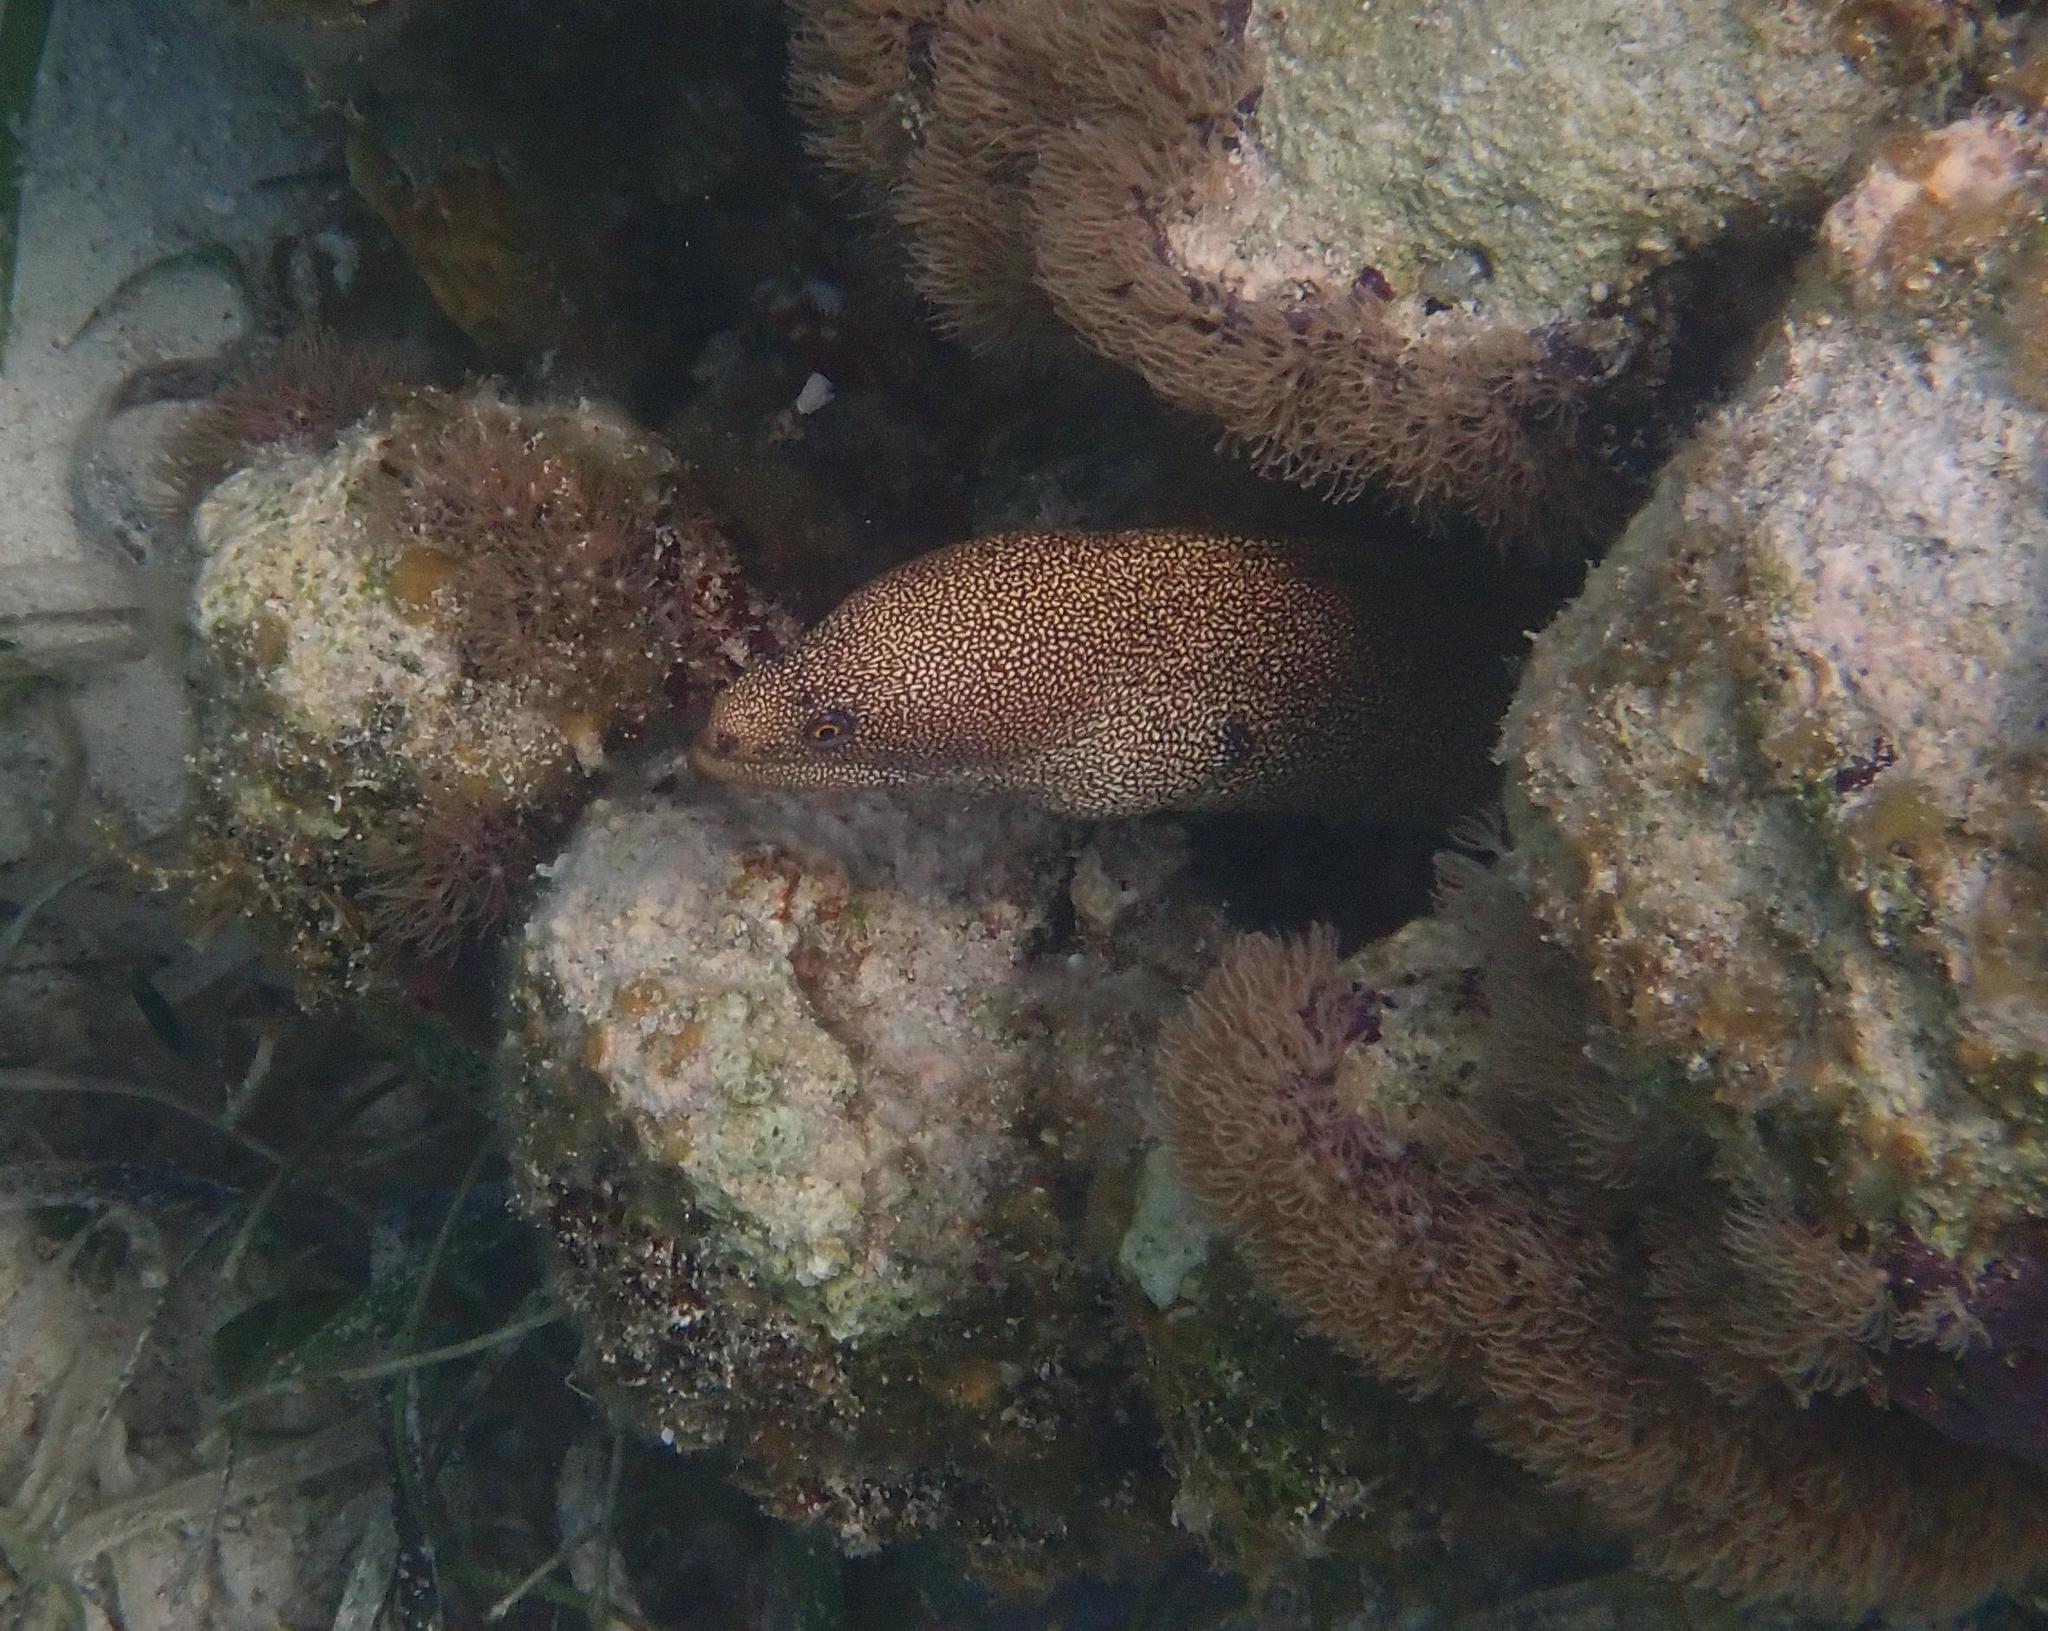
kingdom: Animalia
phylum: Chordata
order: Anguilliformes
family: Muraenidae
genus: Gymnothorax
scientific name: Gymnothorax miliaris
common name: Goldentail moray
